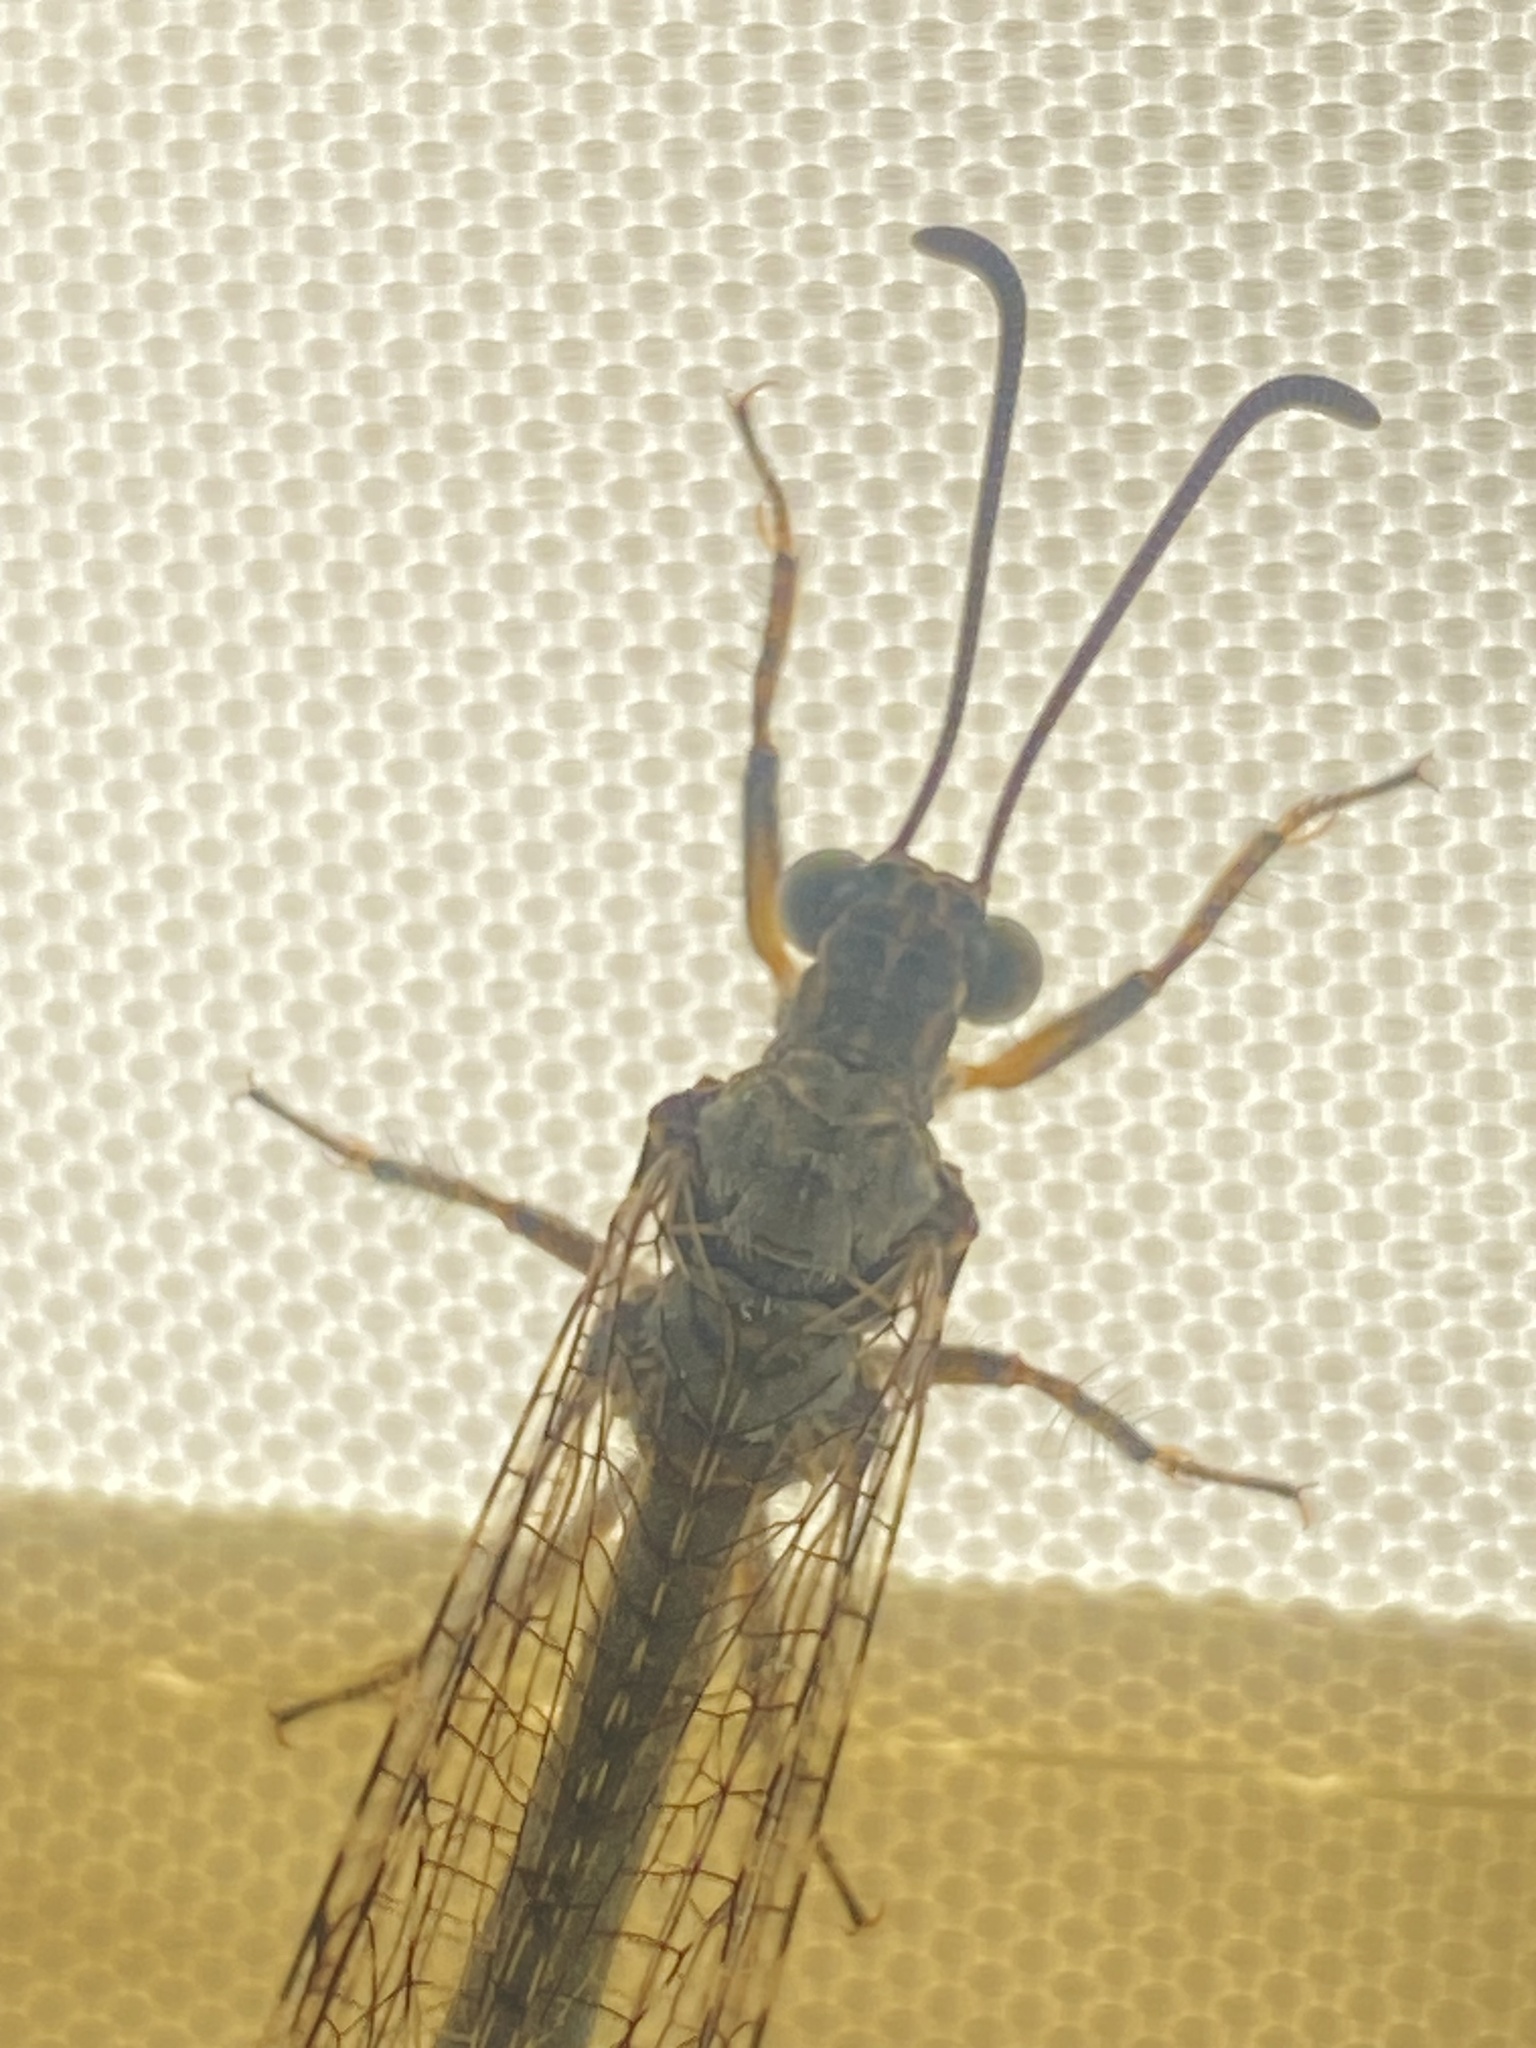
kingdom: Animalia
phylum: Arthropoda
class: Insecta
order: Neuroptera
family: Myrmeleontidae
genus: Distoleon
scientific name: Distoleon tetragrammicus
